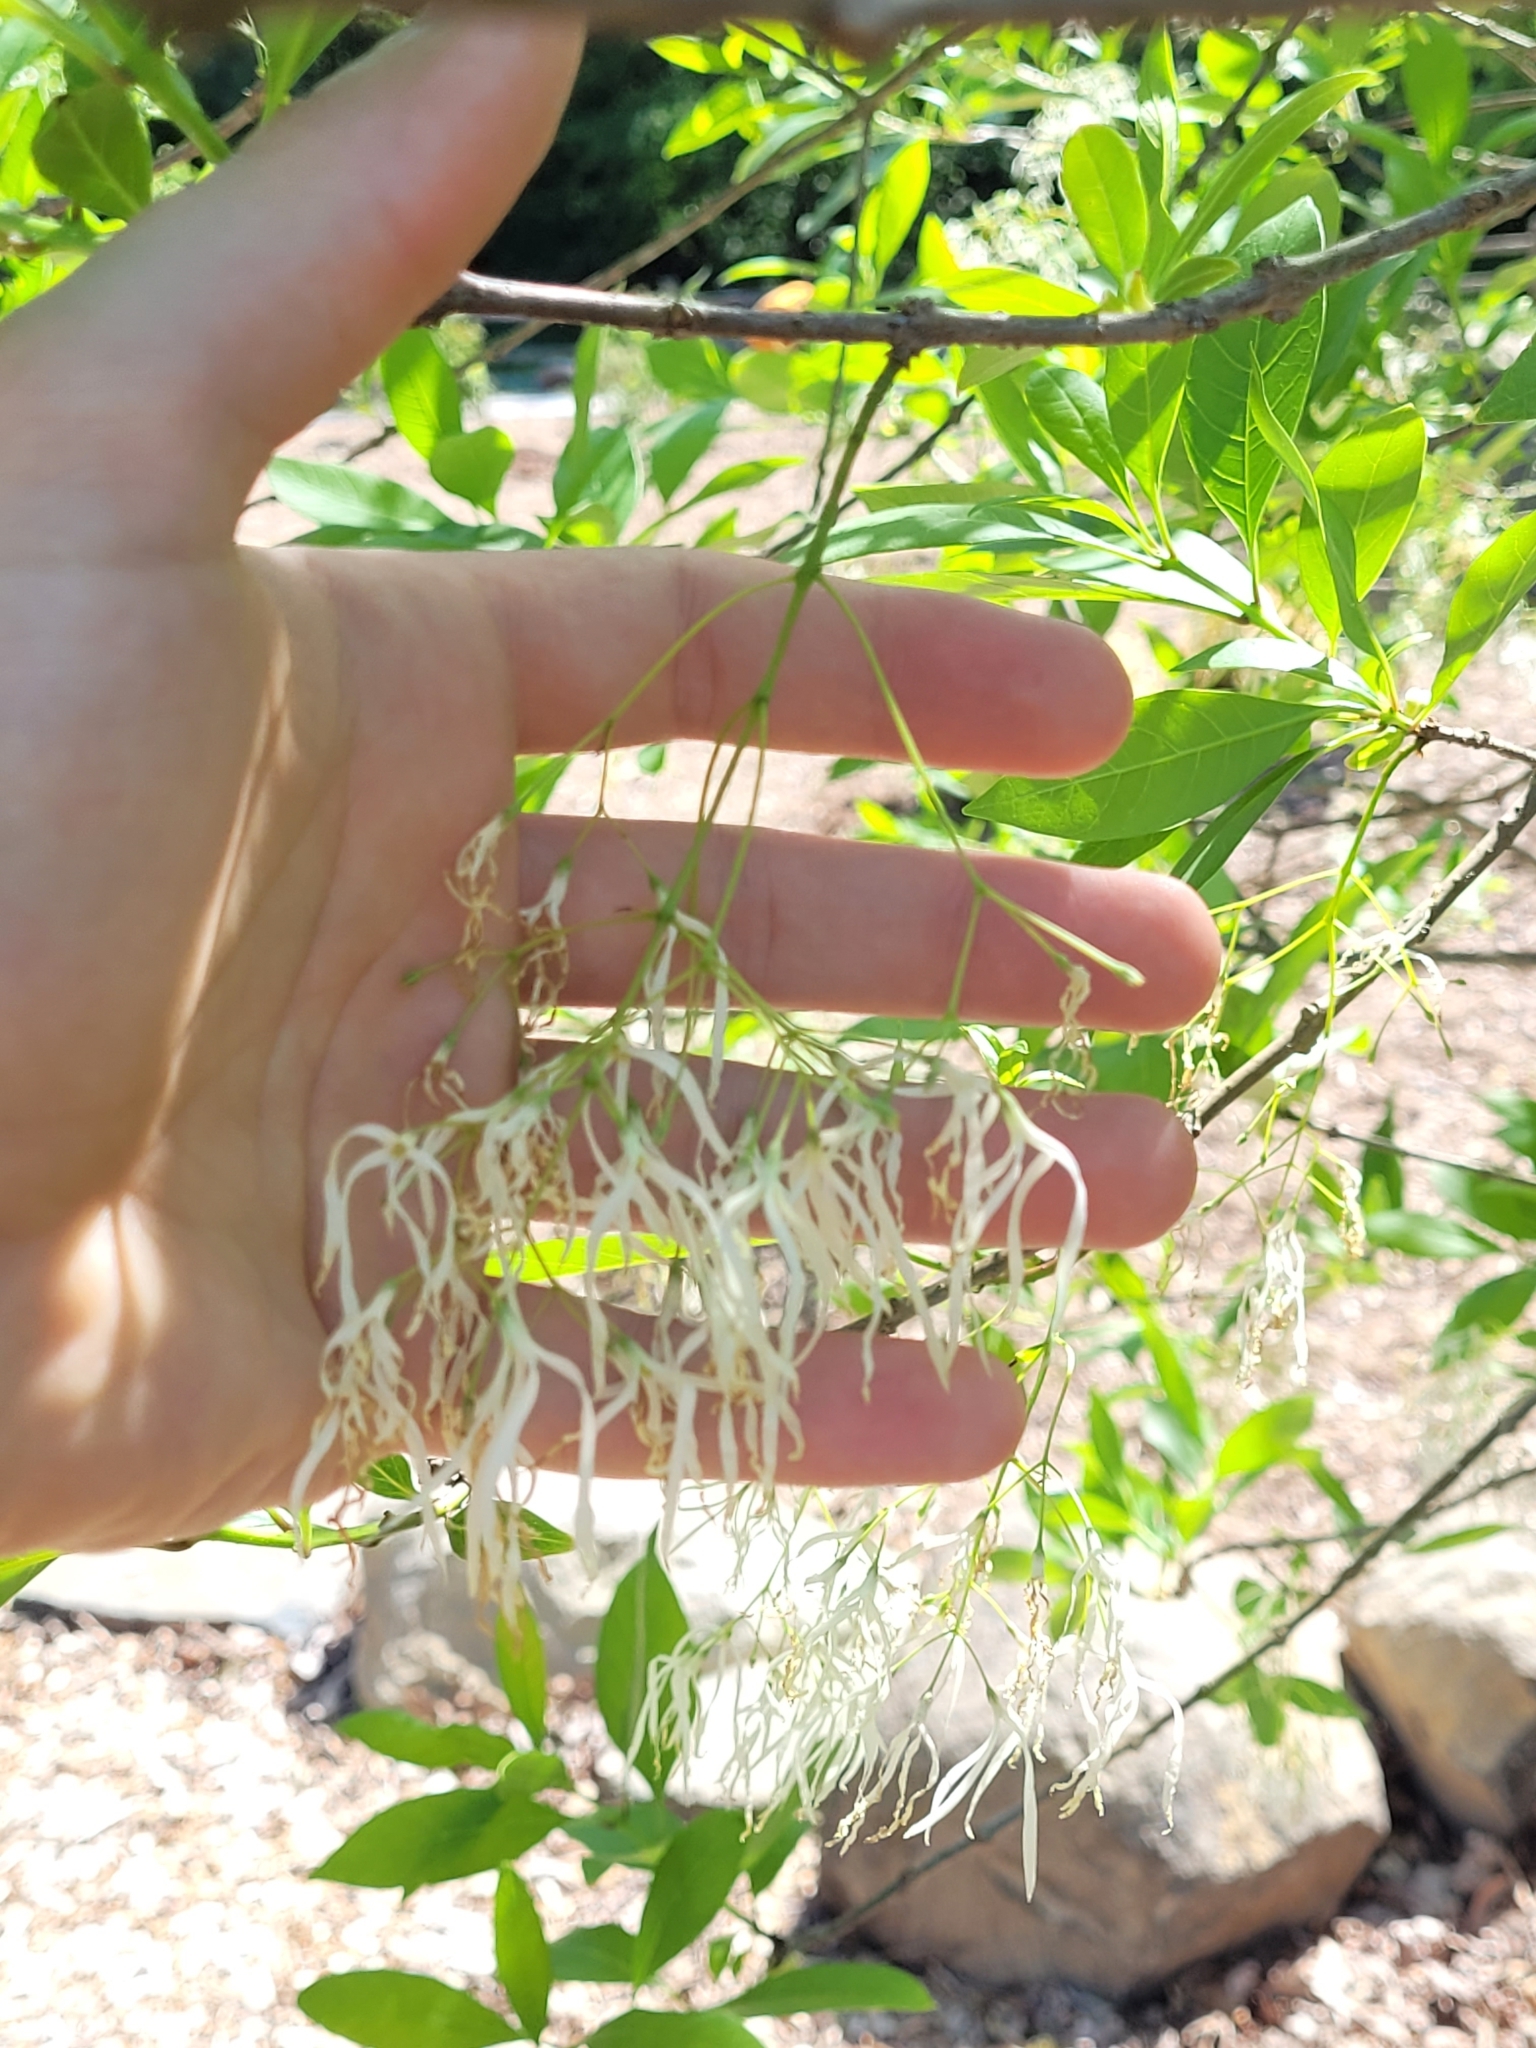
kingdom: Plantae
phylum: Tracheophyta
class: Magnoliopsida
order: Lamiales
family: Oleaceae
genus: Chionanthus
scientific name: Chionanthus virginicus
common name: American fringetree
